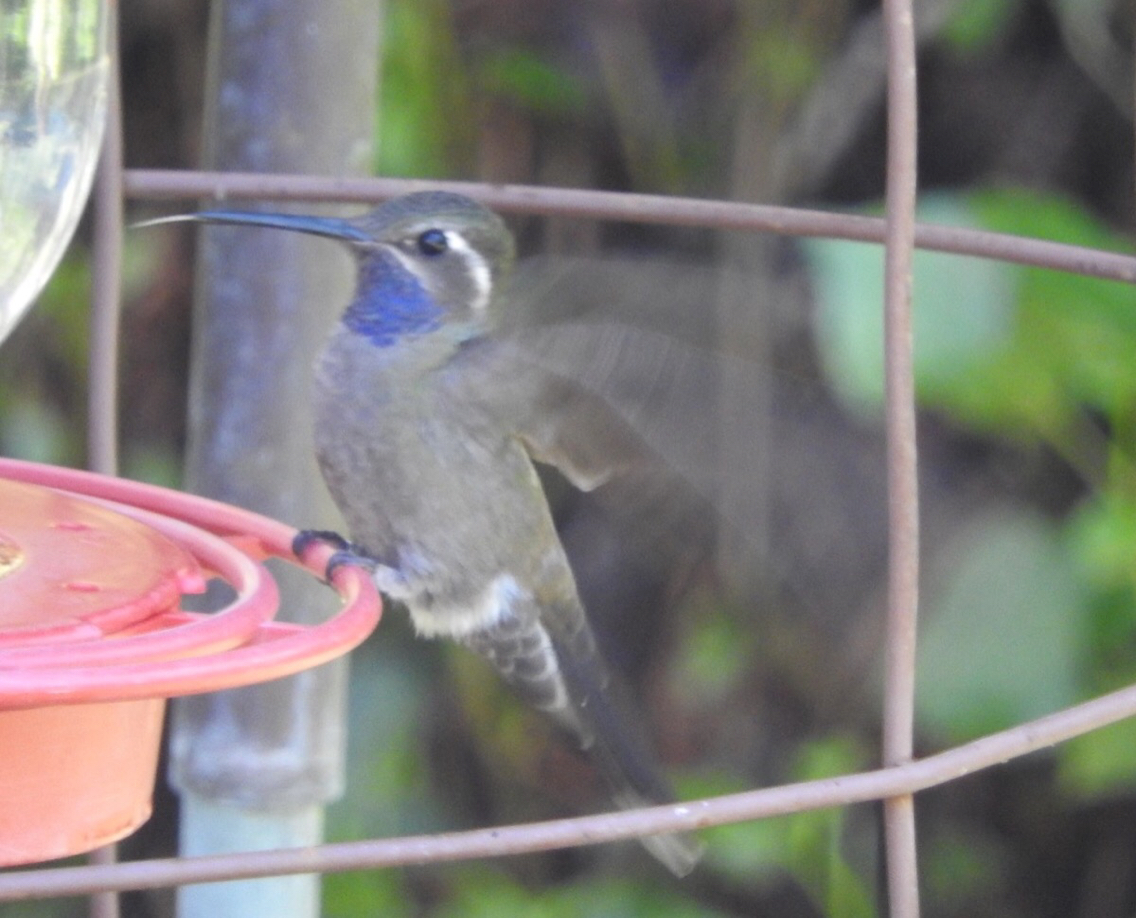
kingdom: Animalia
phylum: Chordata
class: Aves
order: Apodiformes
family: Trochilidae
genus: Lampornis
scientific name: Lampornis clemenciae
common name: Blue-throated mountaingem
